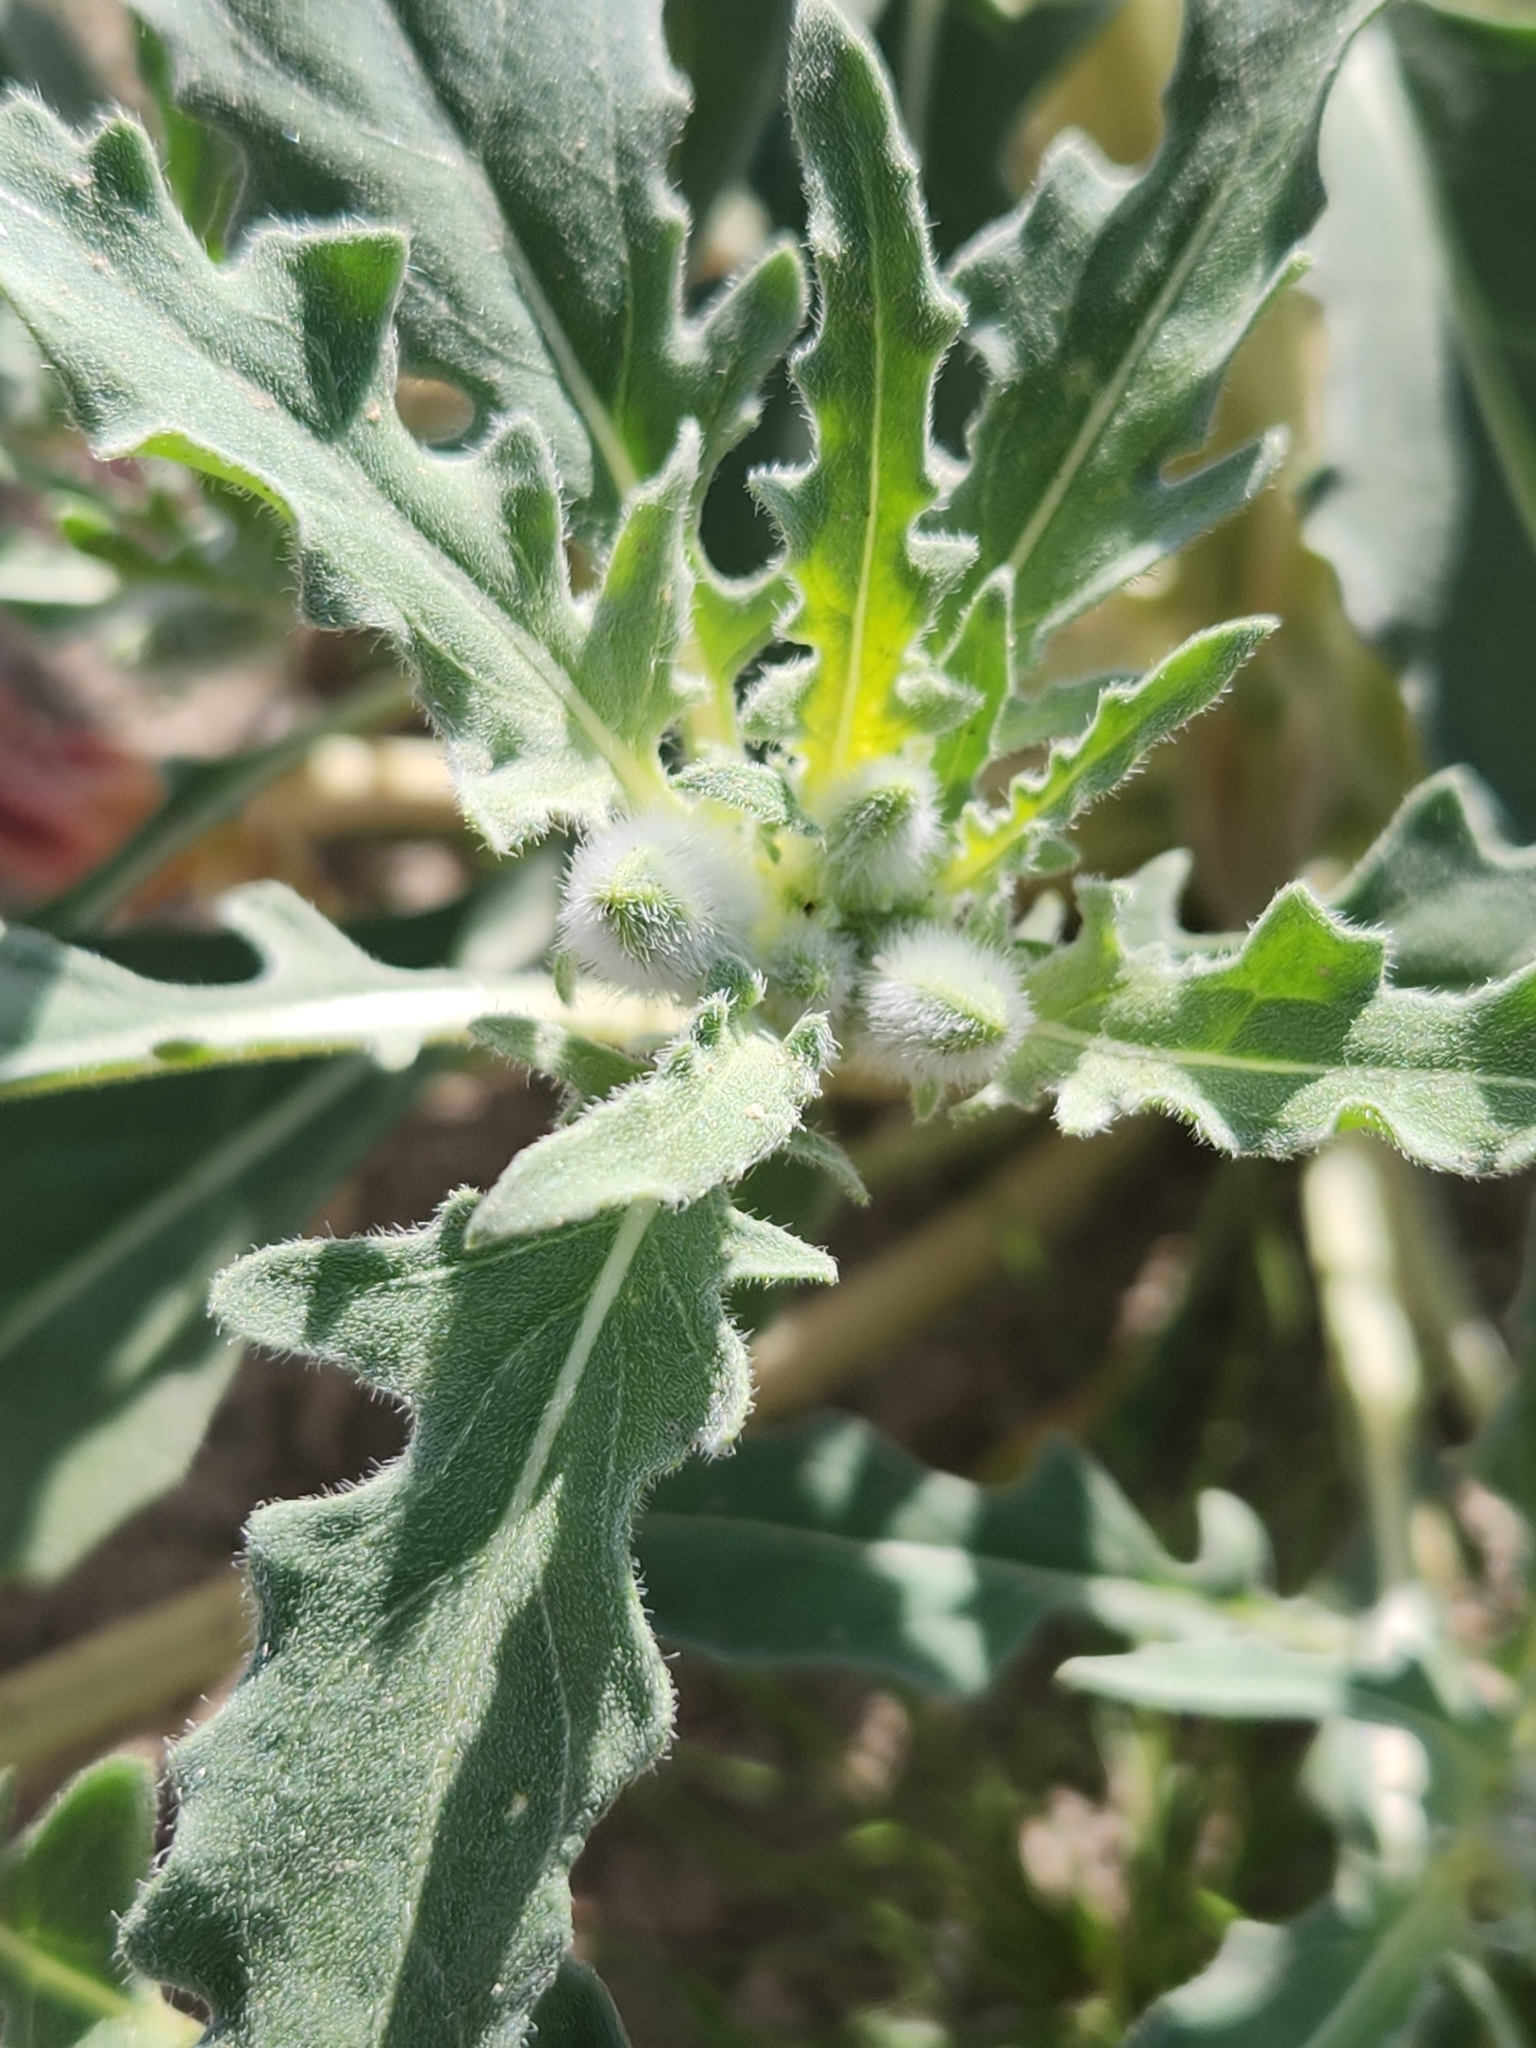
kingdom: Plantae
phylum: Tracheophyta
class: Magnoliopsida
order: Myrtales
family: Onagraceae
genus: Oenothera
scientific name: Oenothera deltoides
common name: Basket evening-primrose
